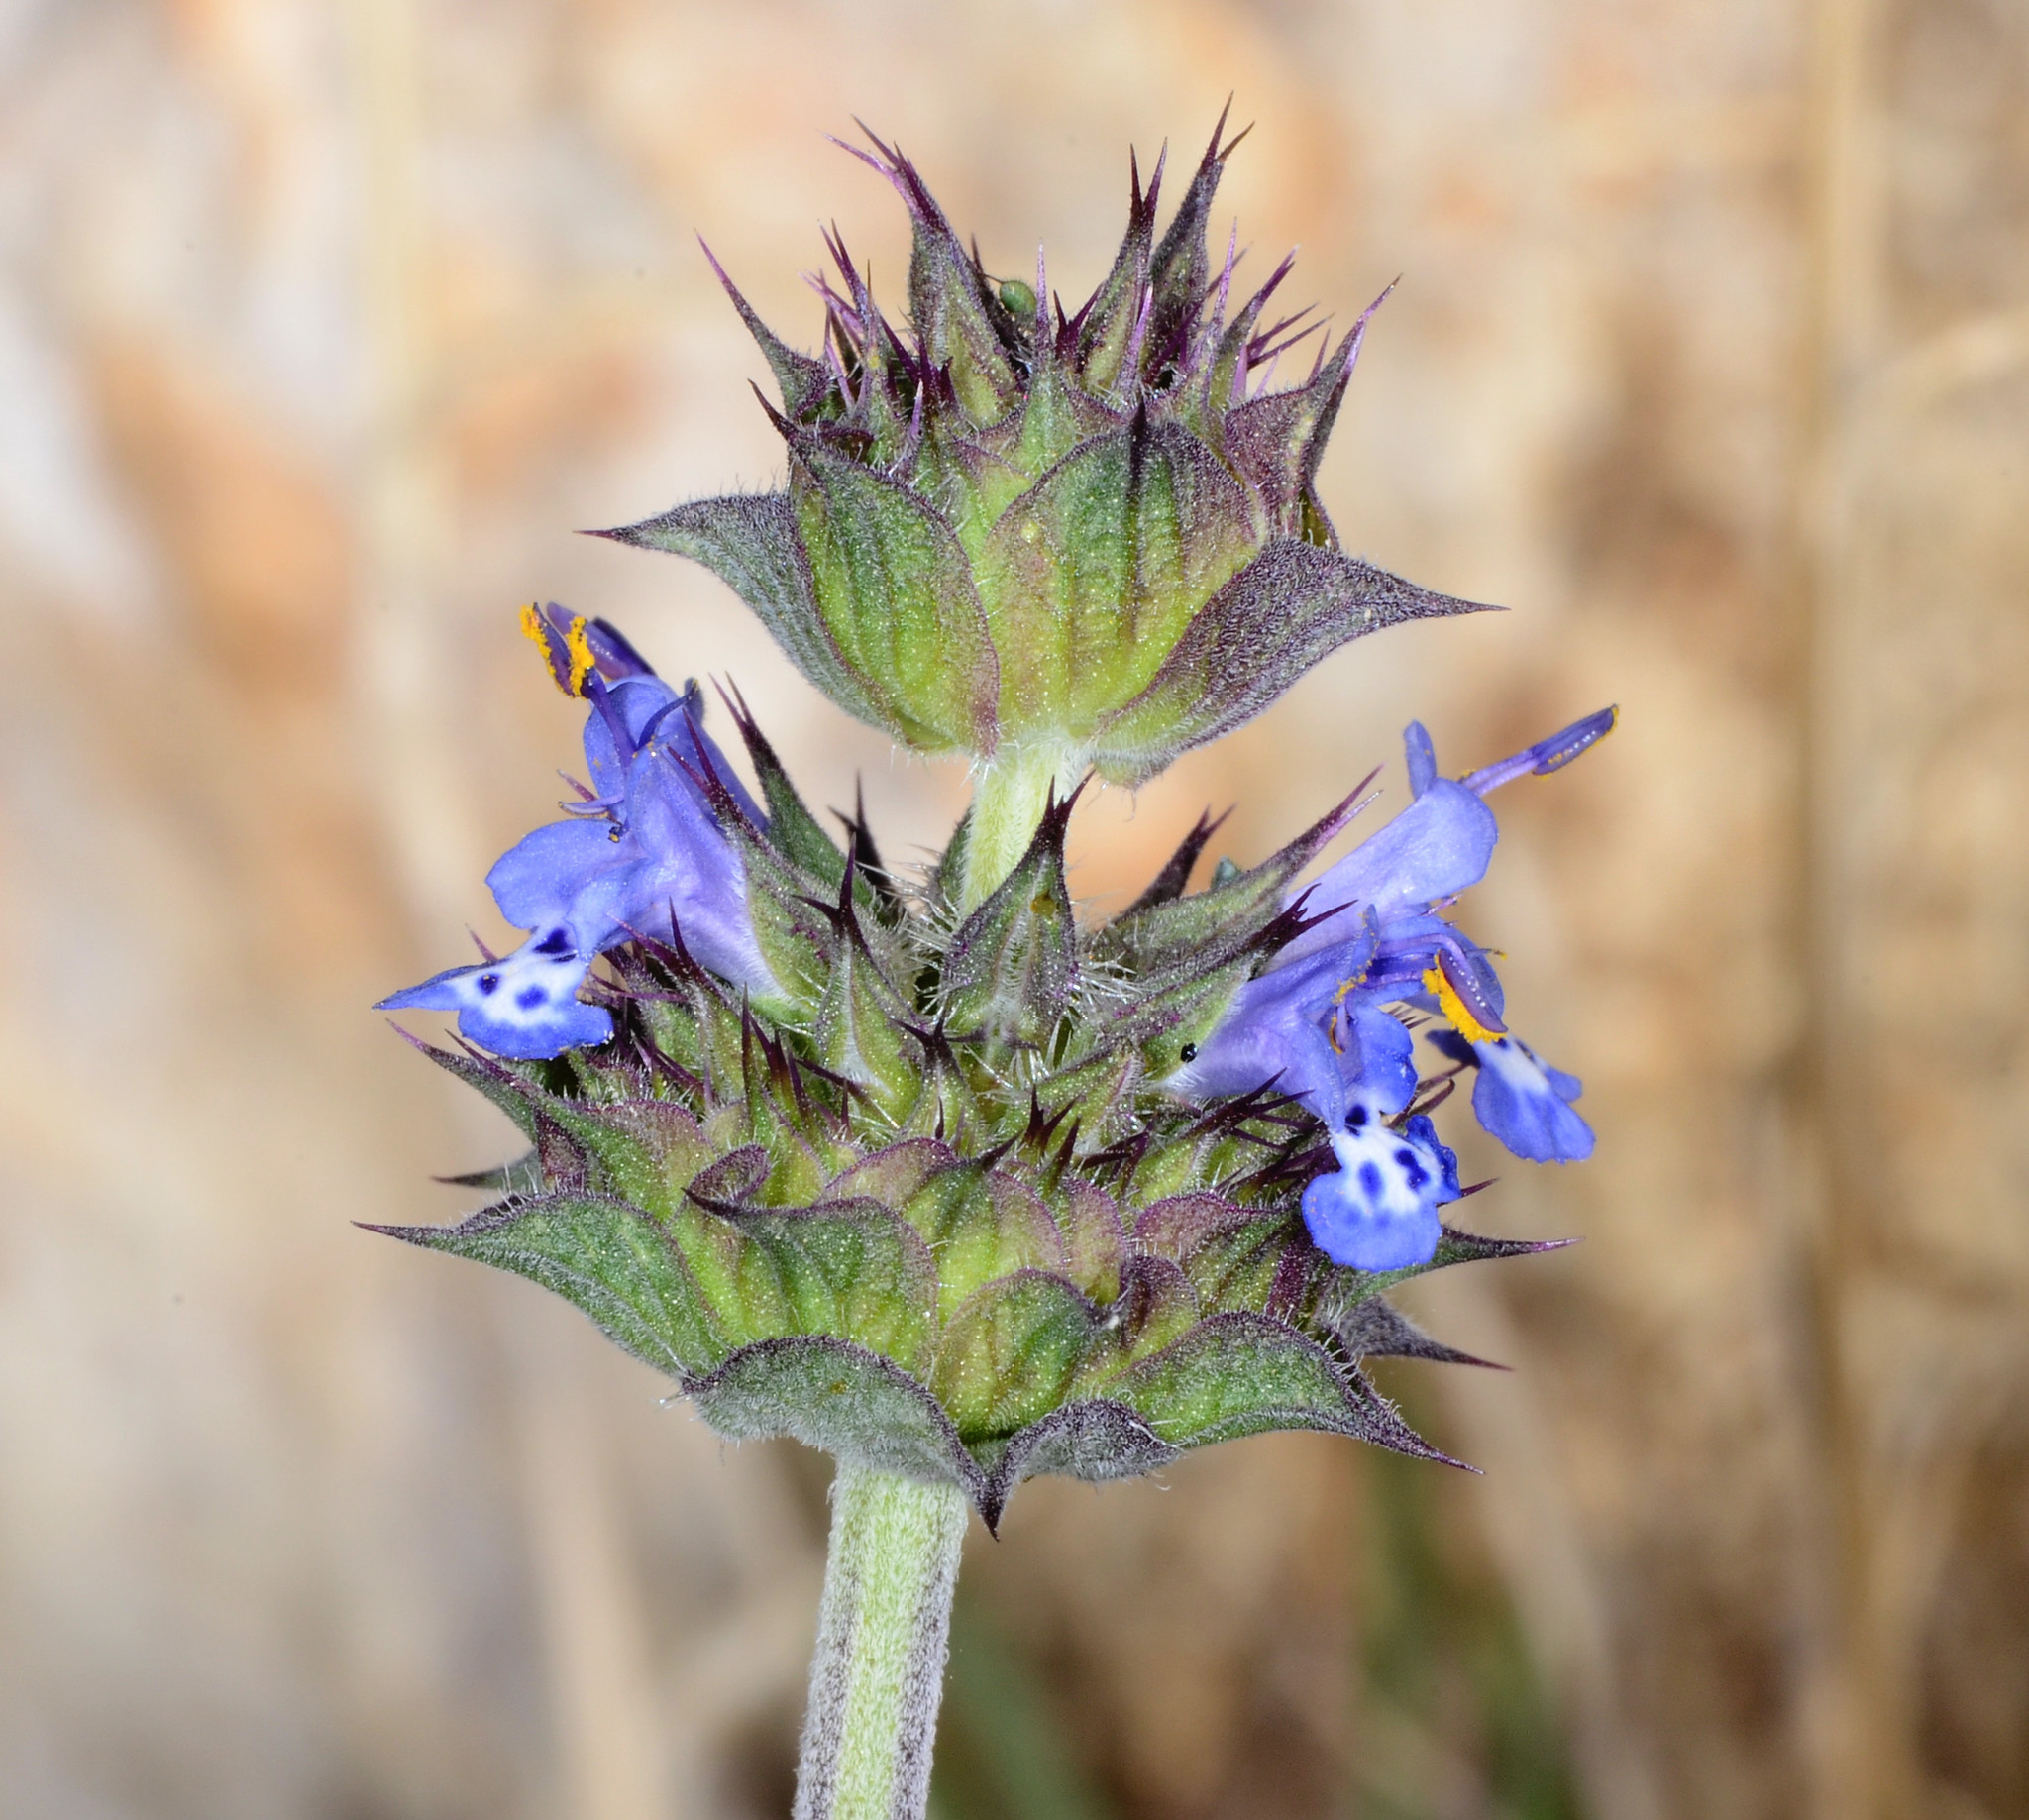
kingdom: Plantae
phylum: Tracheophyta
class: Magnoliopsida
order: Lamiales
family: Lamiaceae
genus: Salvia
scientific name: Salvia columbariae
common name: Chia
